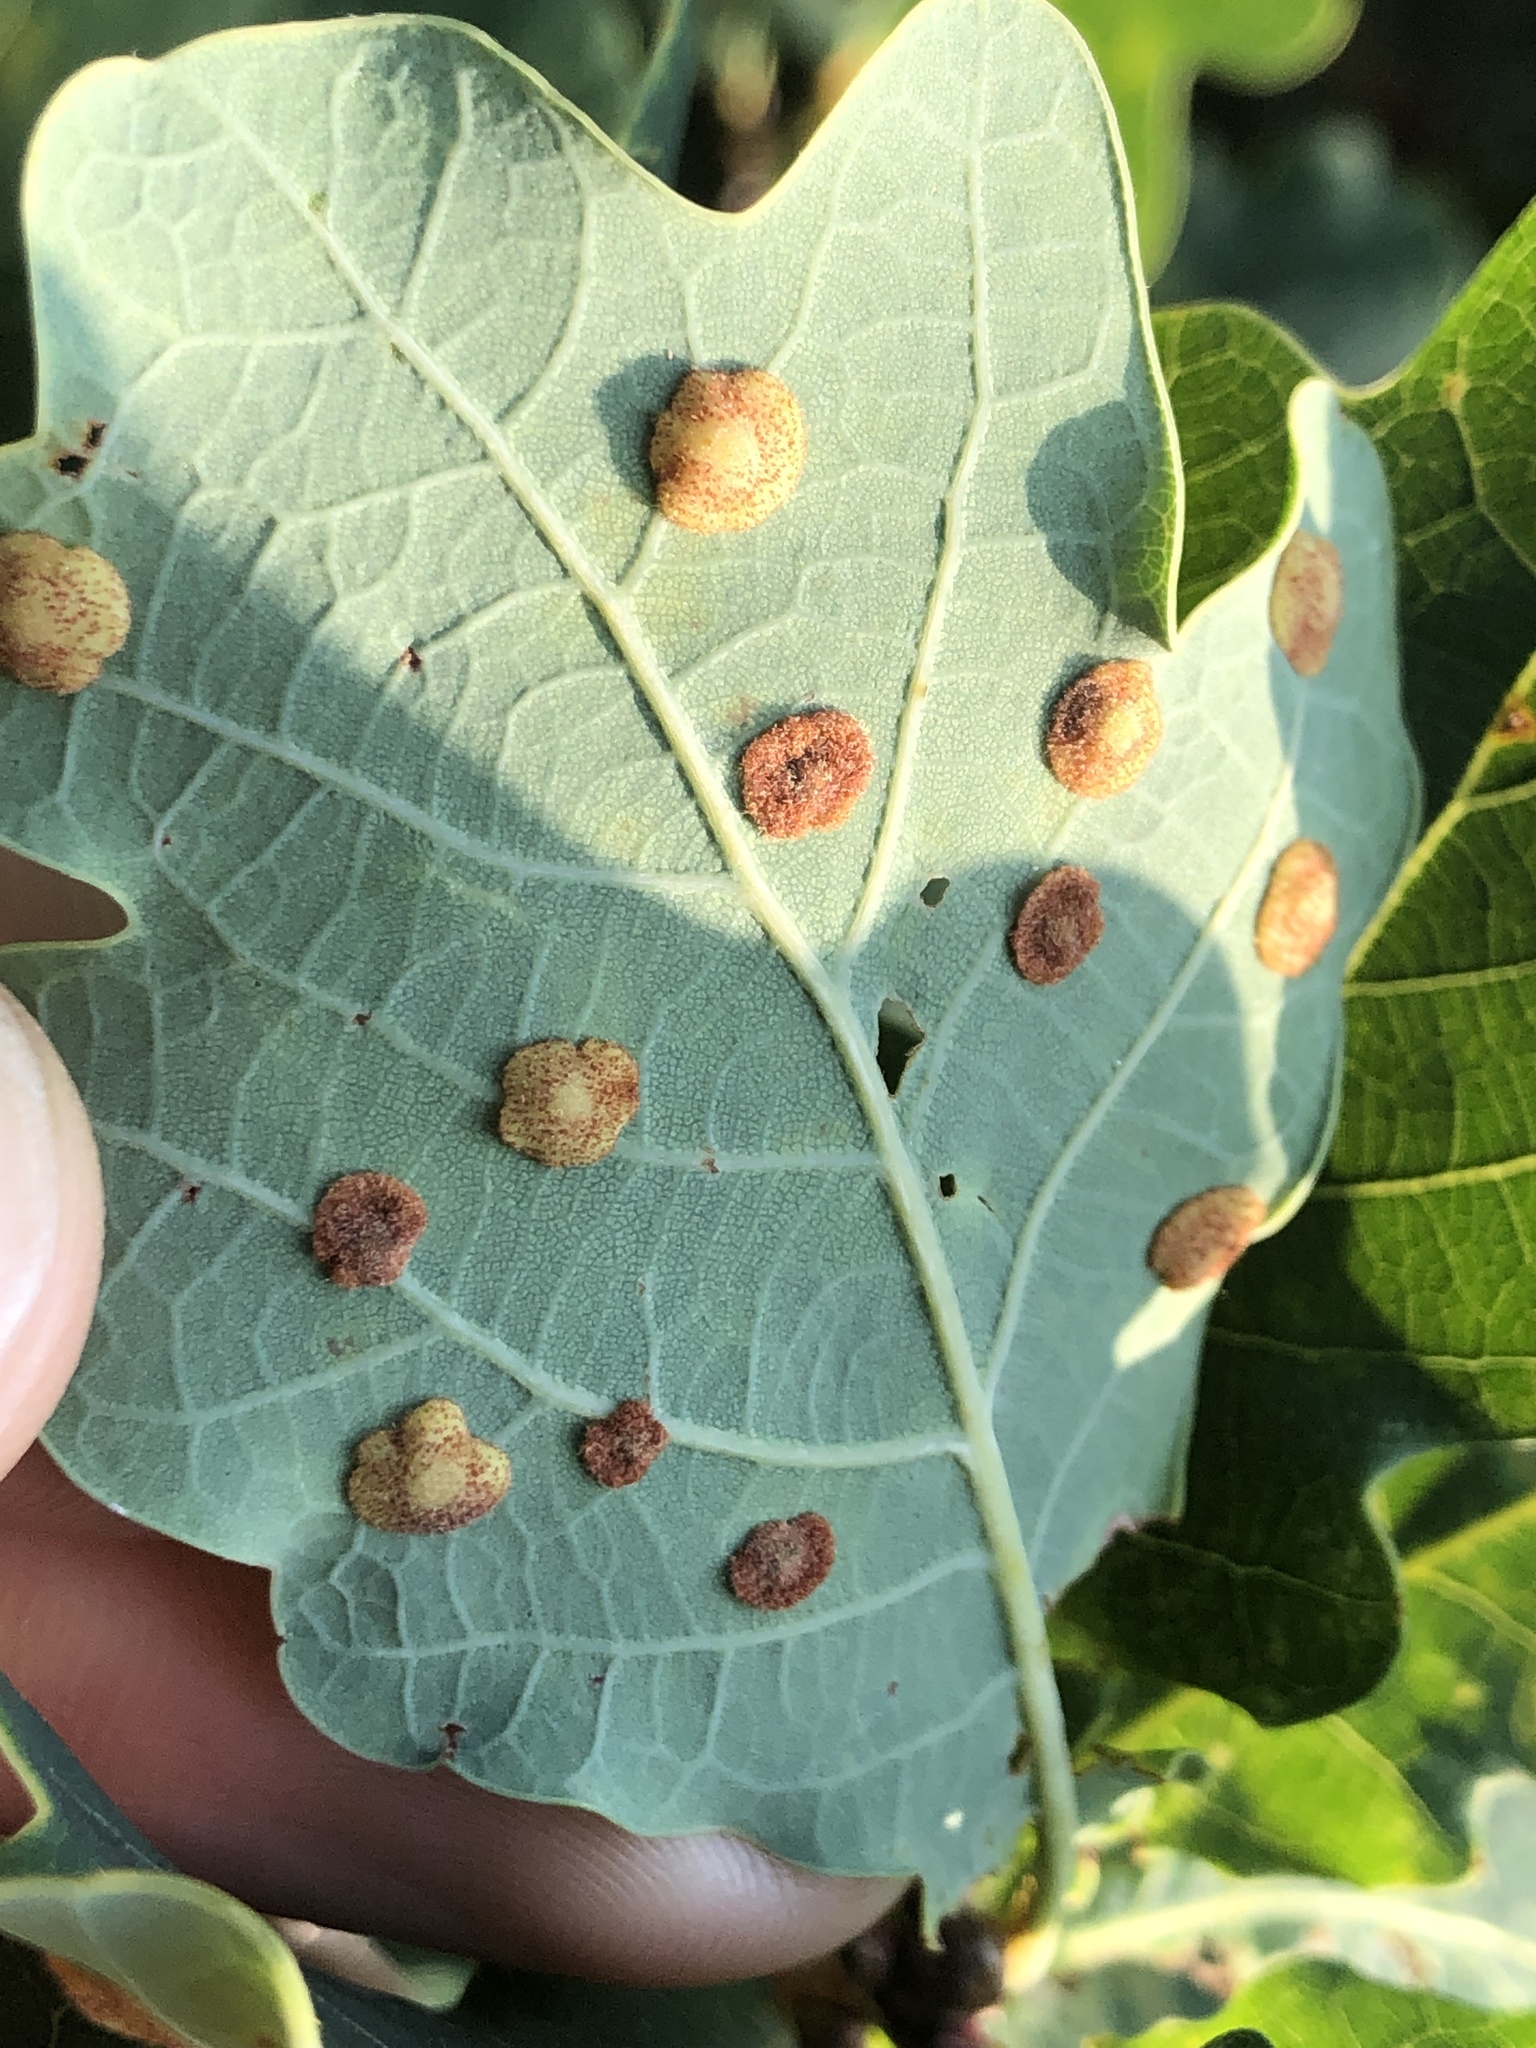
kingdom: Animalia
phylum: Arthropoda
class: Insecta
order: Hymenoptera
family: Cynipidae
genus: Neuroterus
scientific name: Neuroterus quercusbaccarum
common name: Common spangle gall
